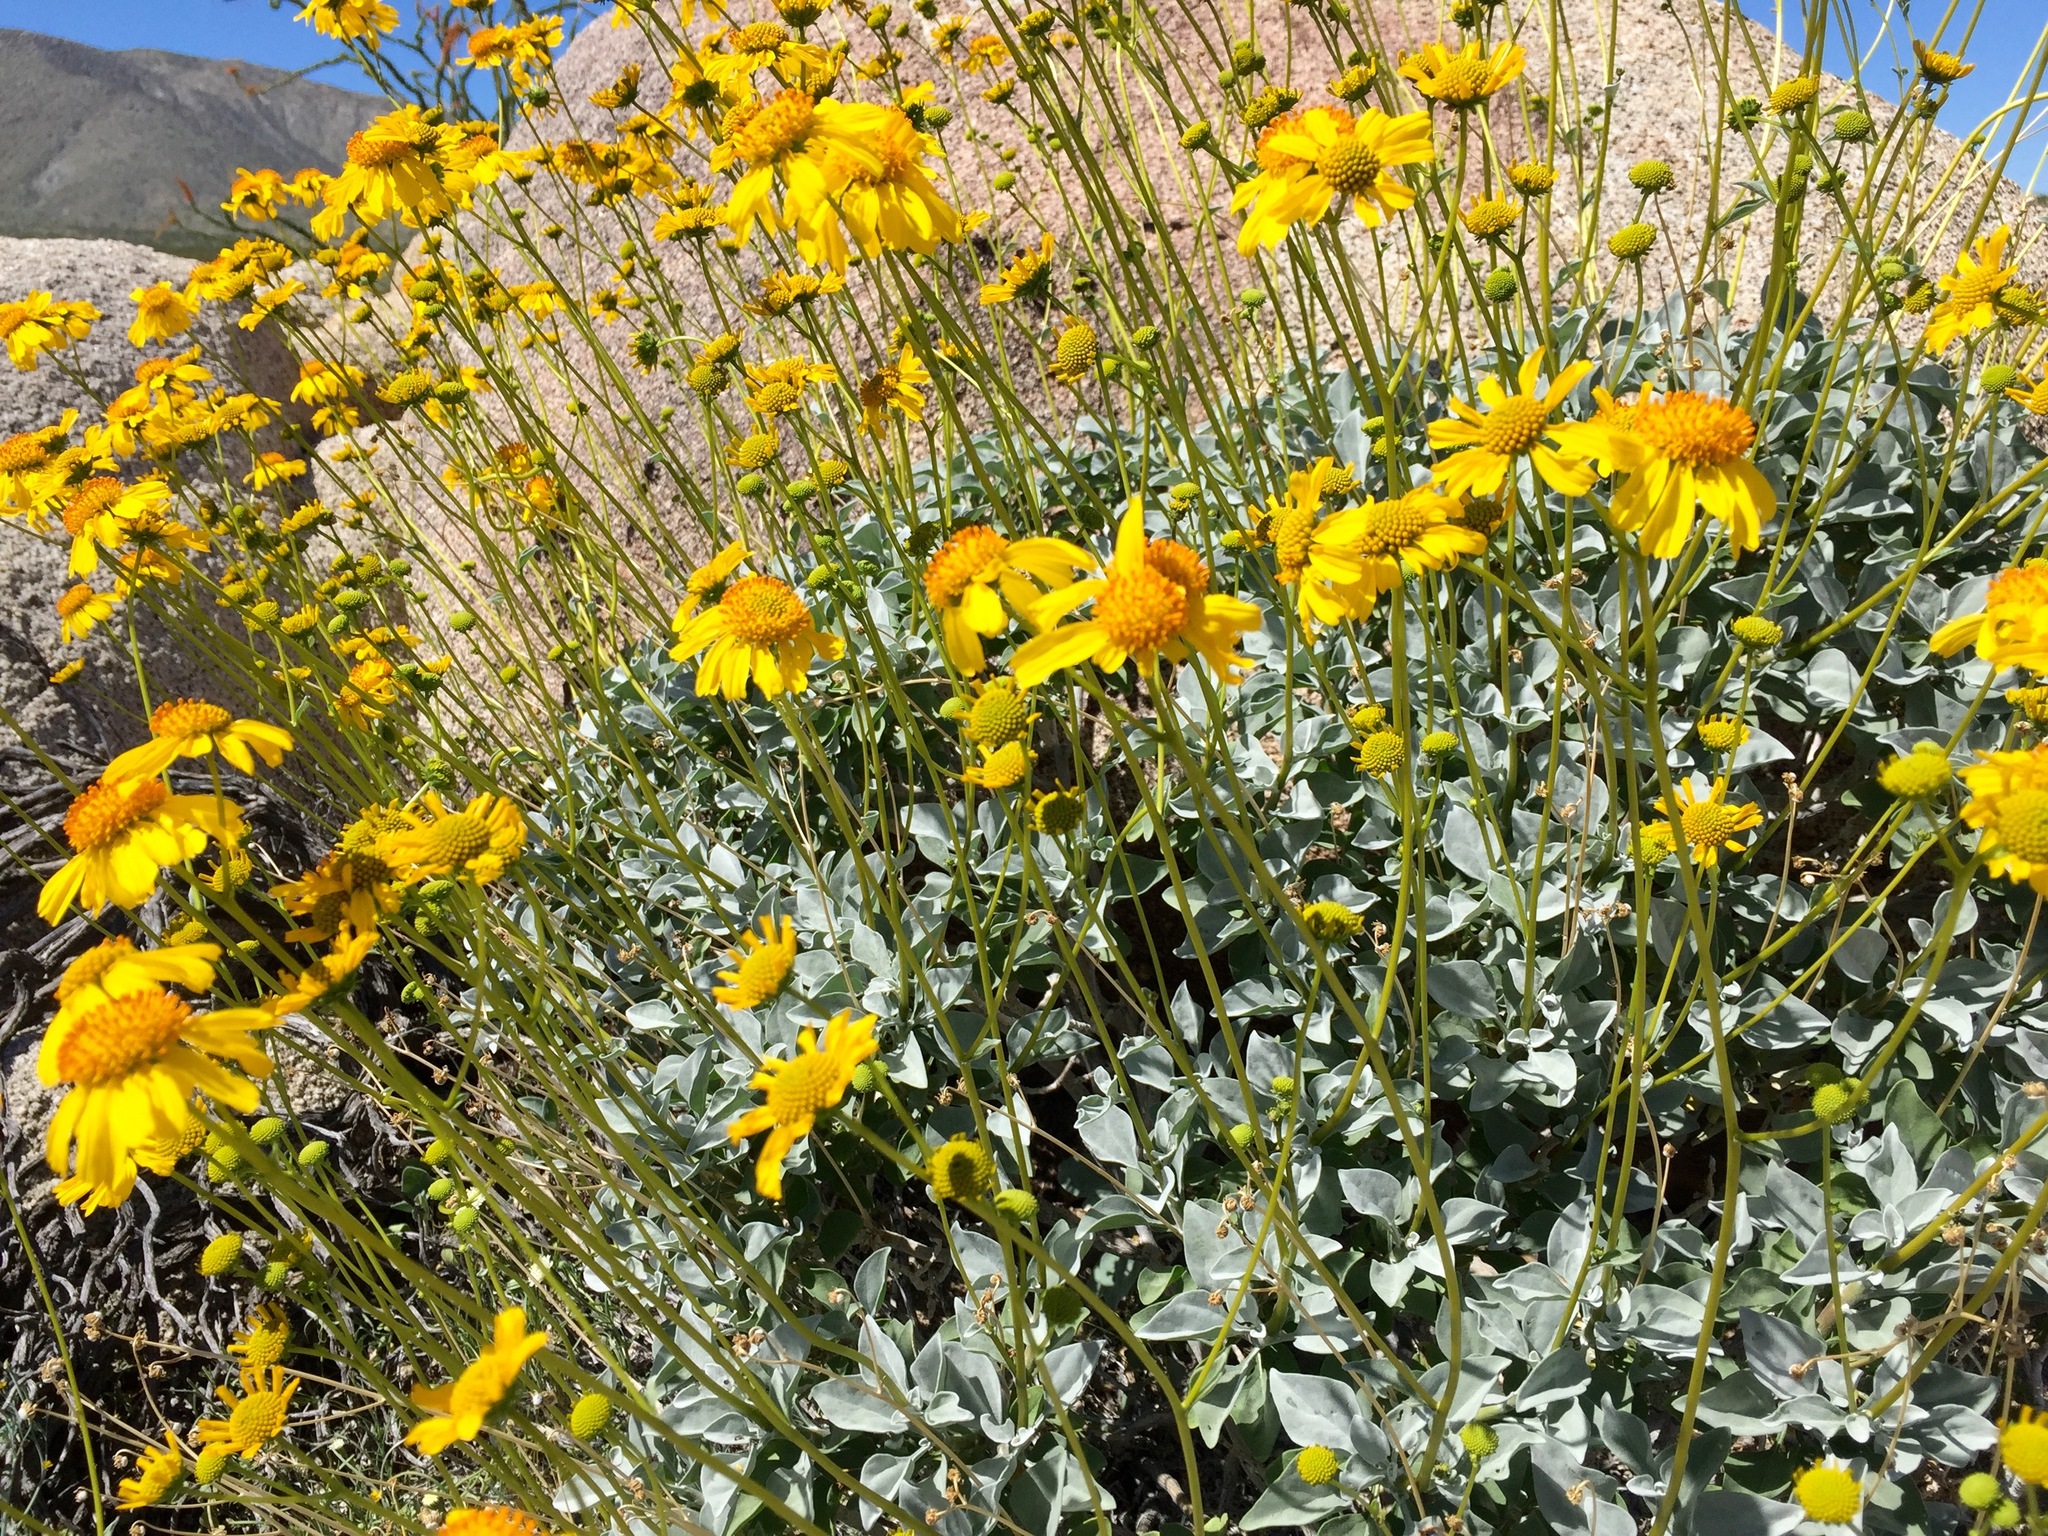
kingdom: Plantae
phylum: Tracheophyta
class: Magnoliopsida
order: Asterales
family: Asteraceae
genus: Encelia
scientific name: Encelia farinosa
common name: Brittlebush
